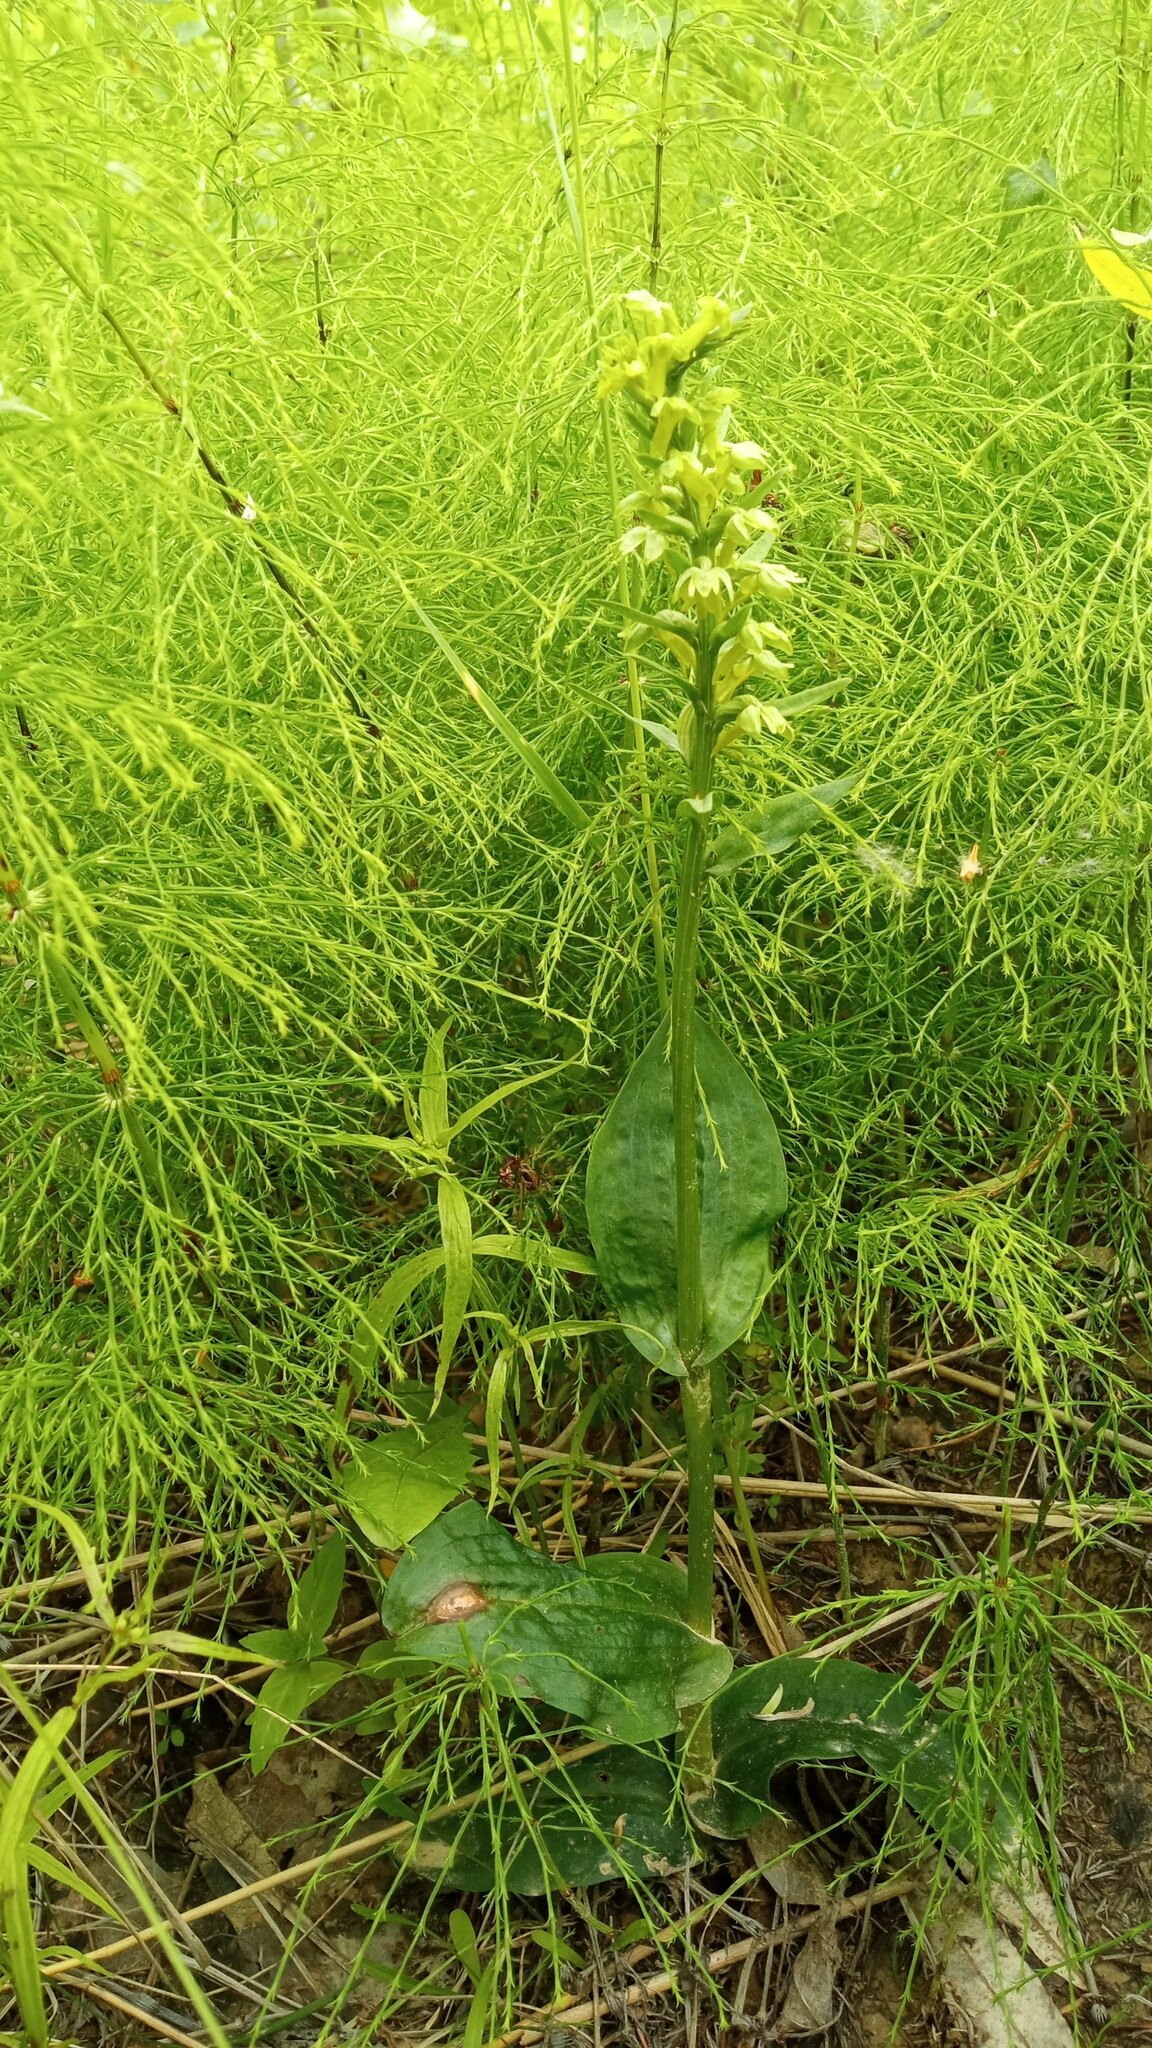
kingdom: Plantae
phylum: Tracheophyta
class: Liliopsida
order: Asparagales
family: Orchidaceae
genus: Dactylorhiza
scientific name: Dactylorhiza viridis
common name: Longbract frog orchid
